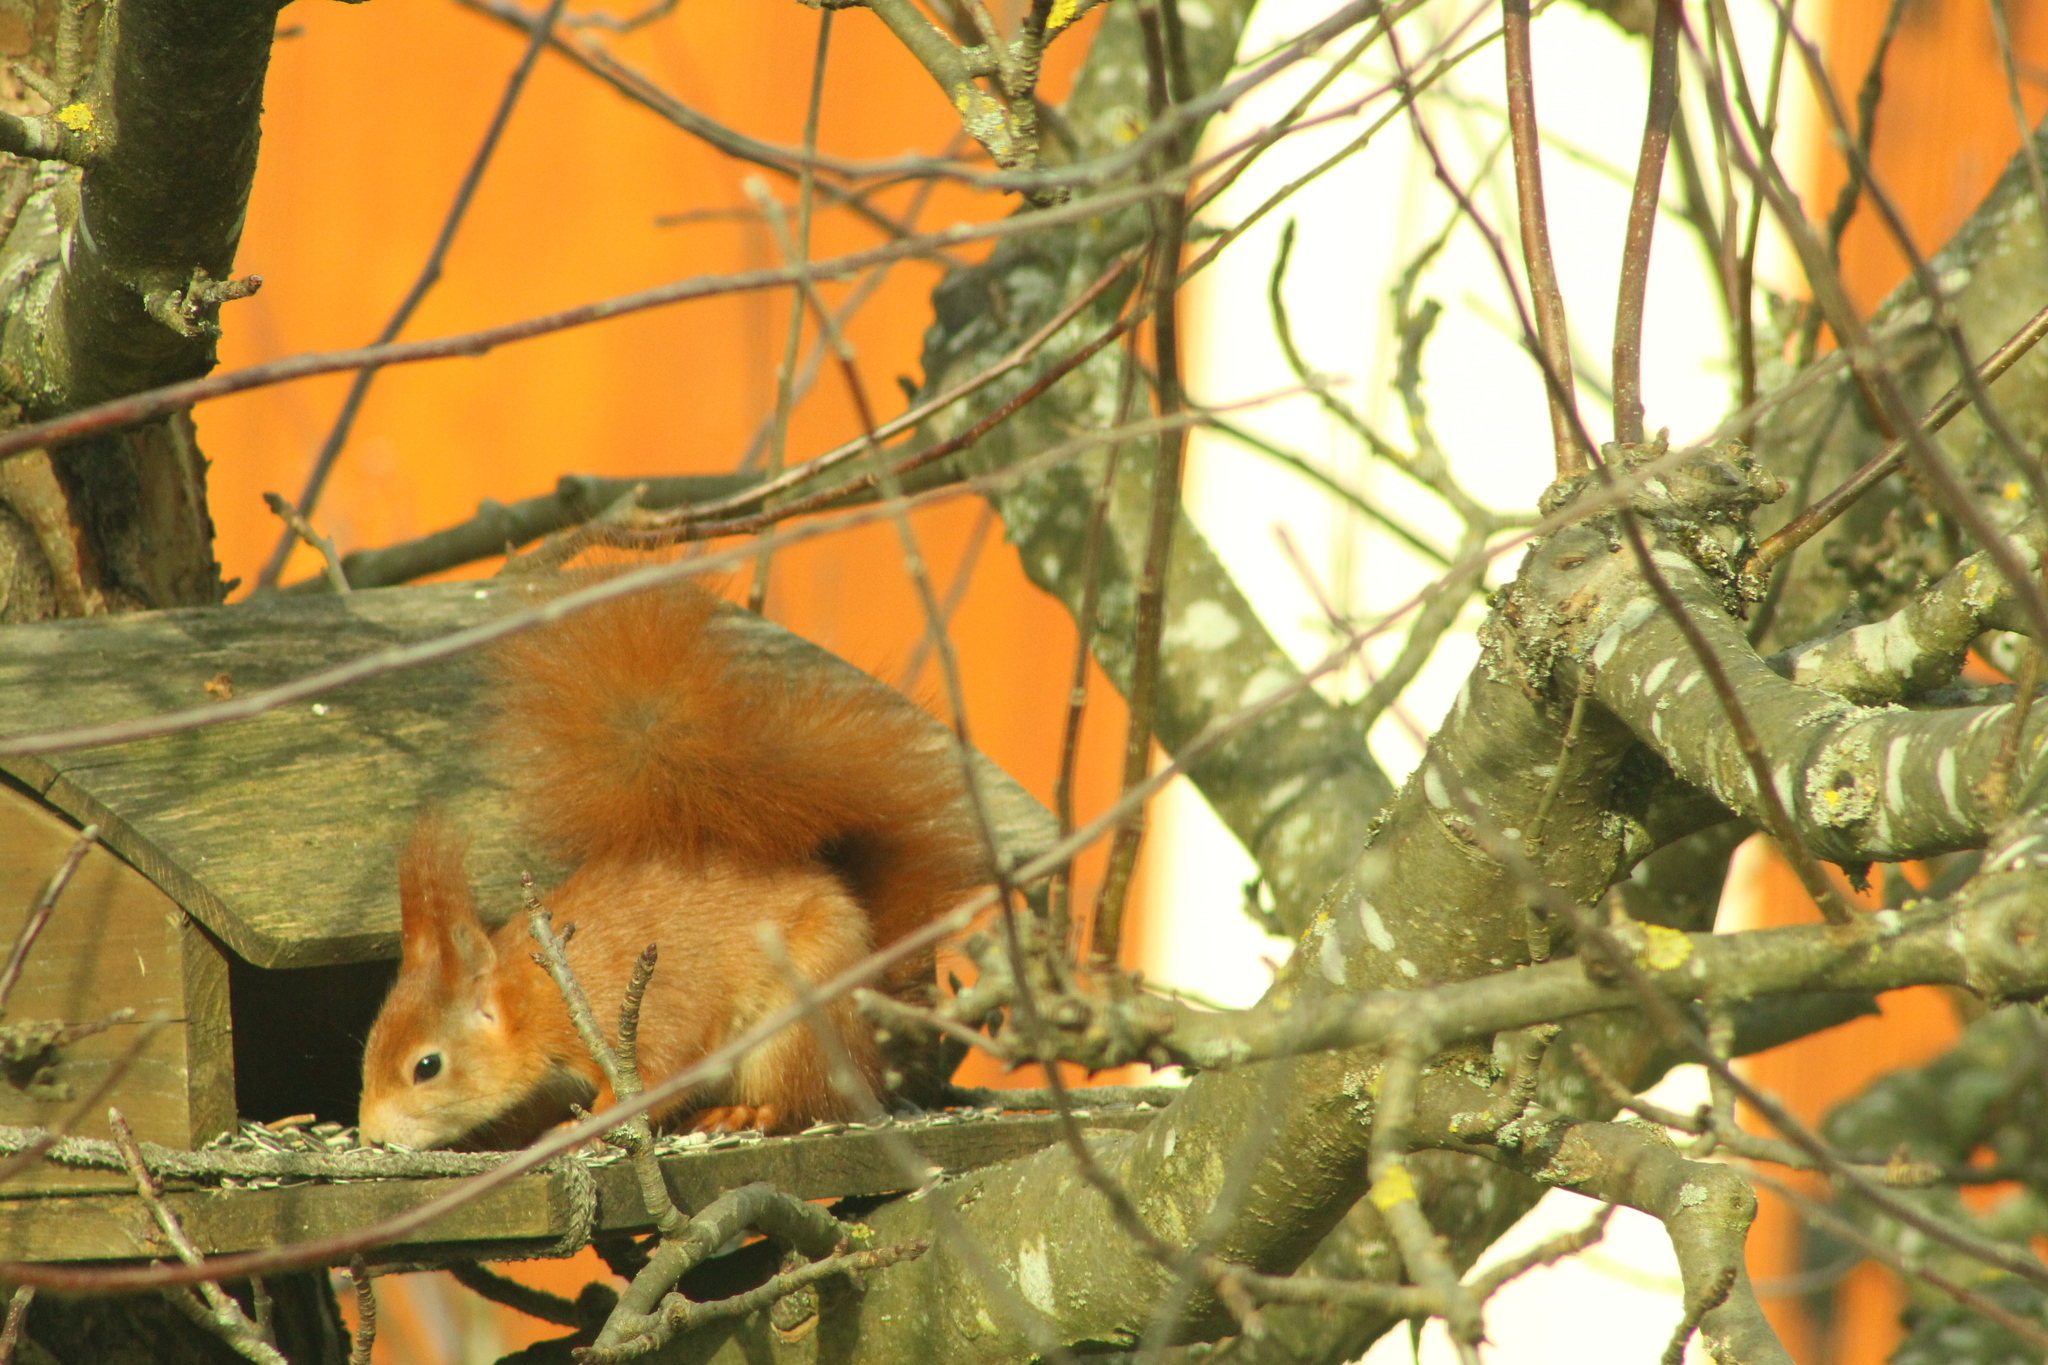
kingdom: Animalia
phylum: Chordata
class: Mammalia
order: Rodentia
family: Sciuridae
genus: Sciurus
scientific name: Sciurus vulgaris
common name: Eurasian red squirrel
